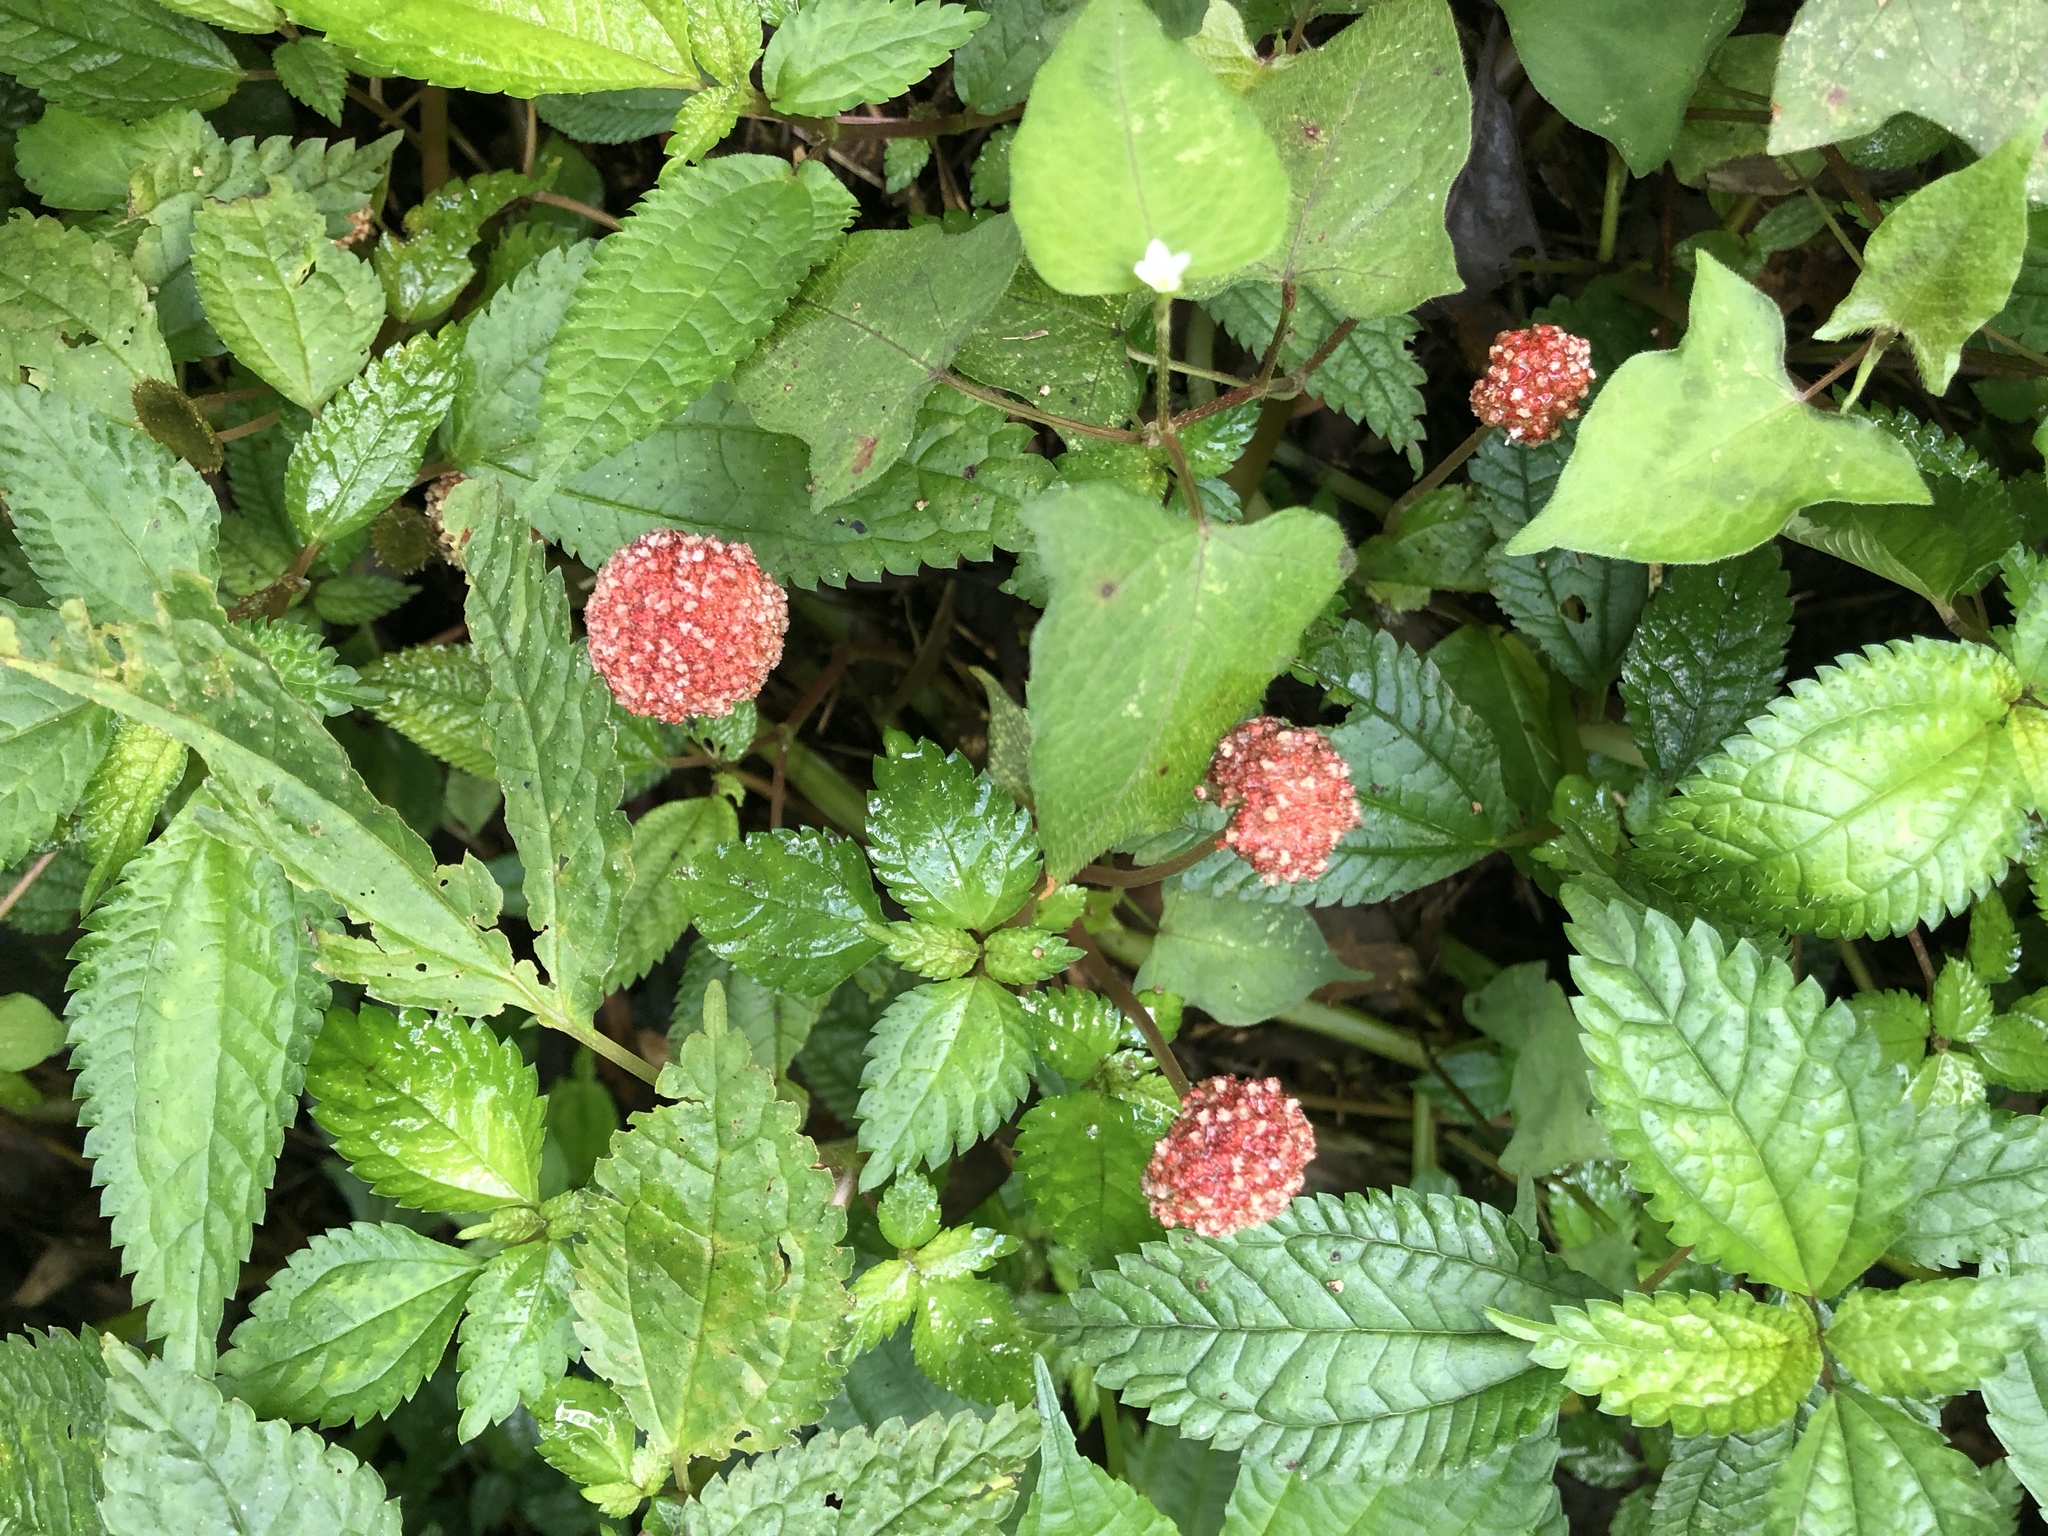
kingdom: Plantae
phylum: Tracheophyta
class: Magnoliopsida
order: Rosales
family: Urticaceae
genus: Lecanthus
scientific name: Lecanthus peduncularis
